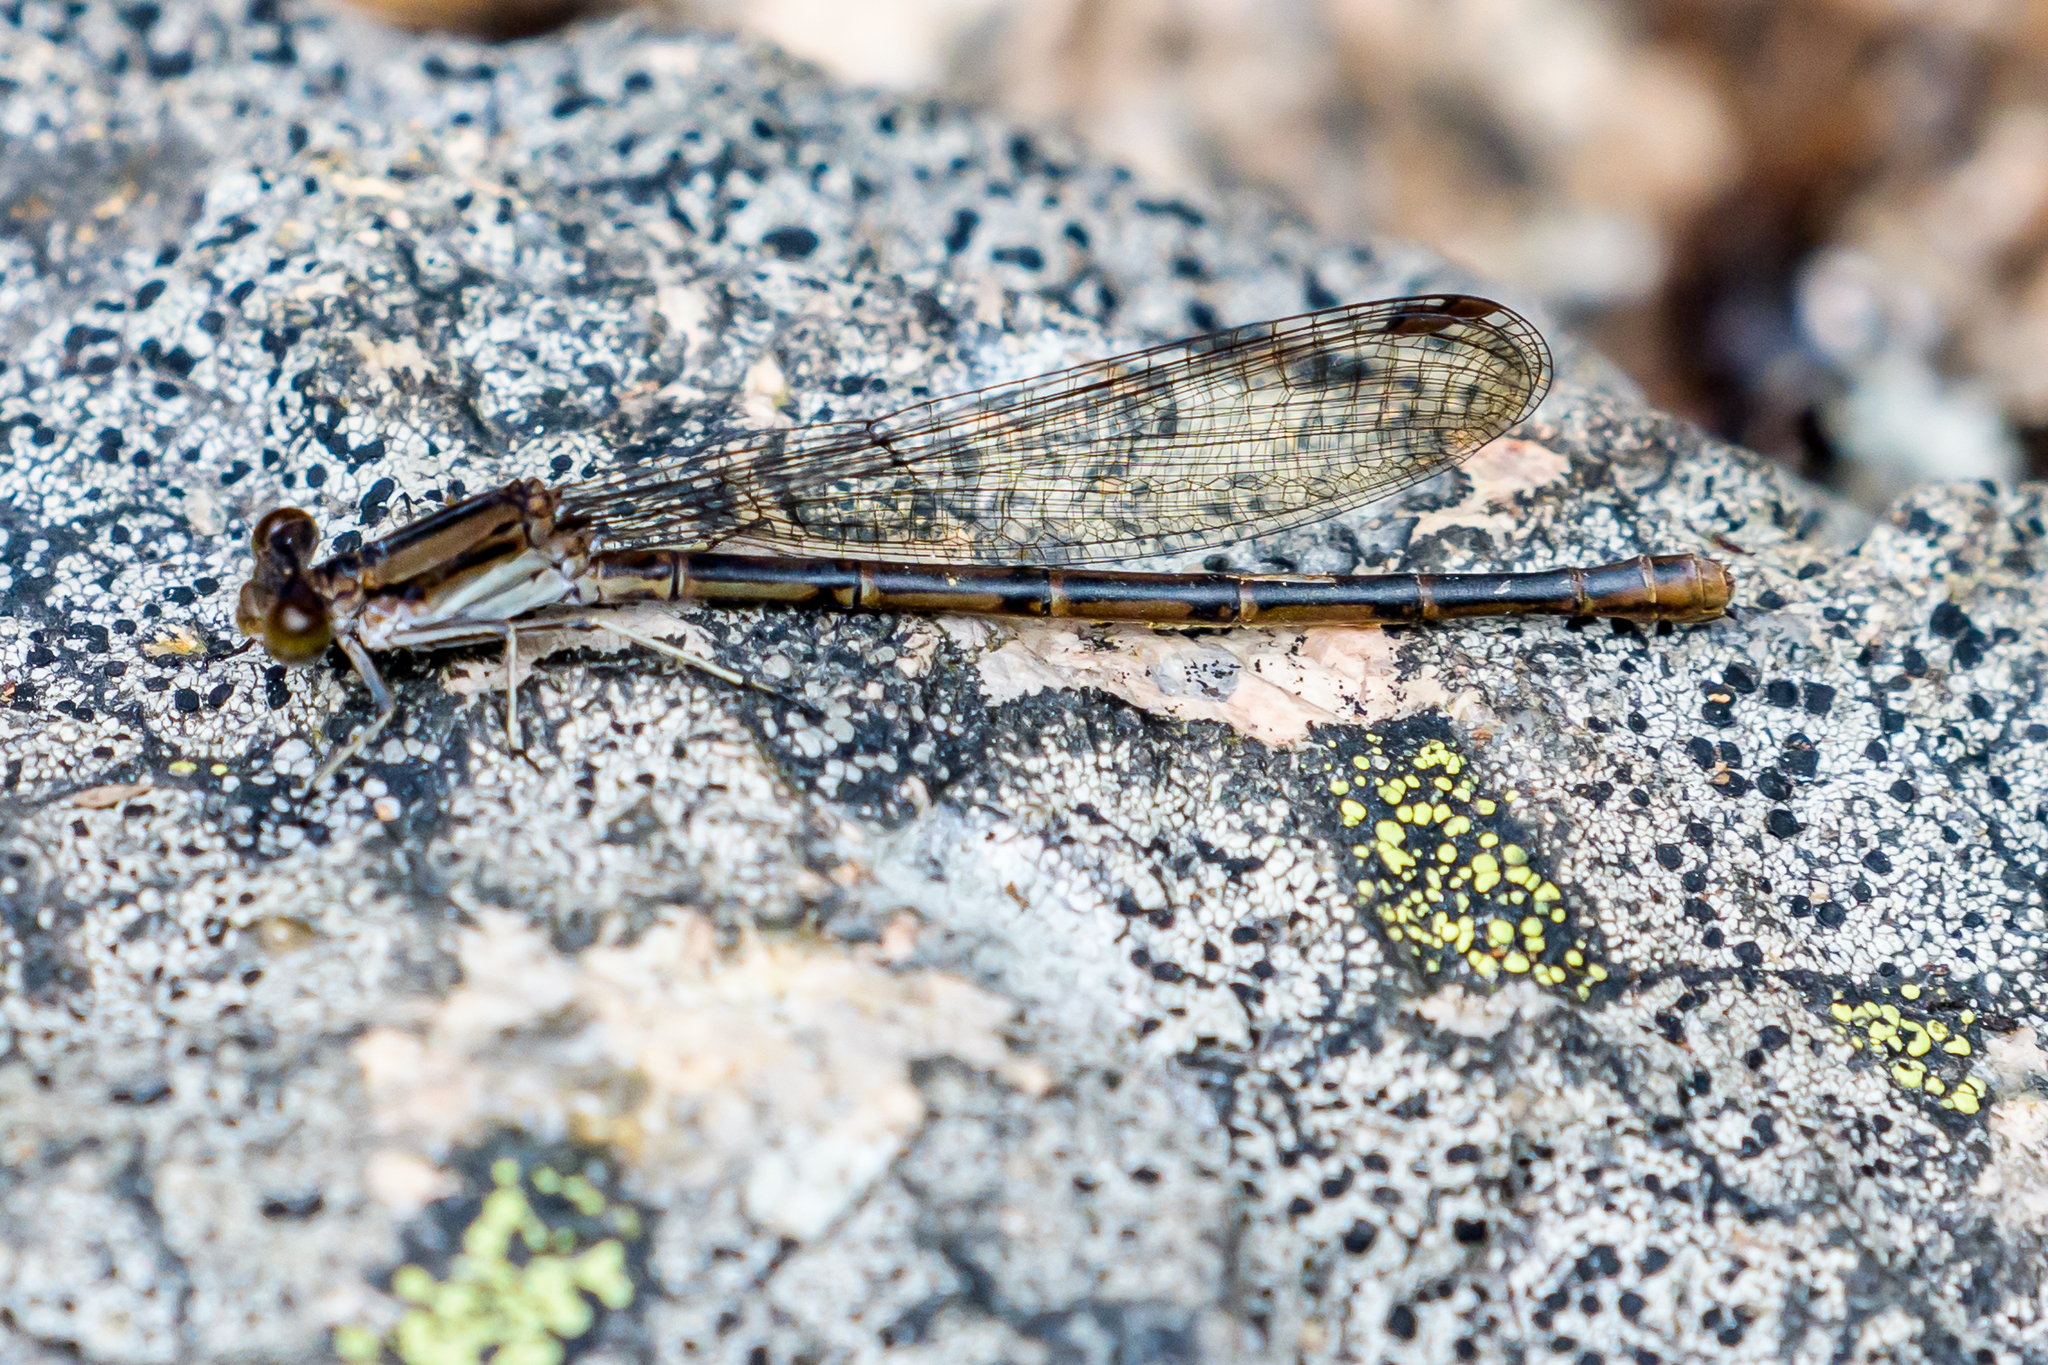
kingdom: Animalia
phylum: Arthropoda
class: Insecta
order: Odonata
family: Coenagrionidae
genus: Argia
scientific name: Argia fumipennis
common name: Variable dancer
